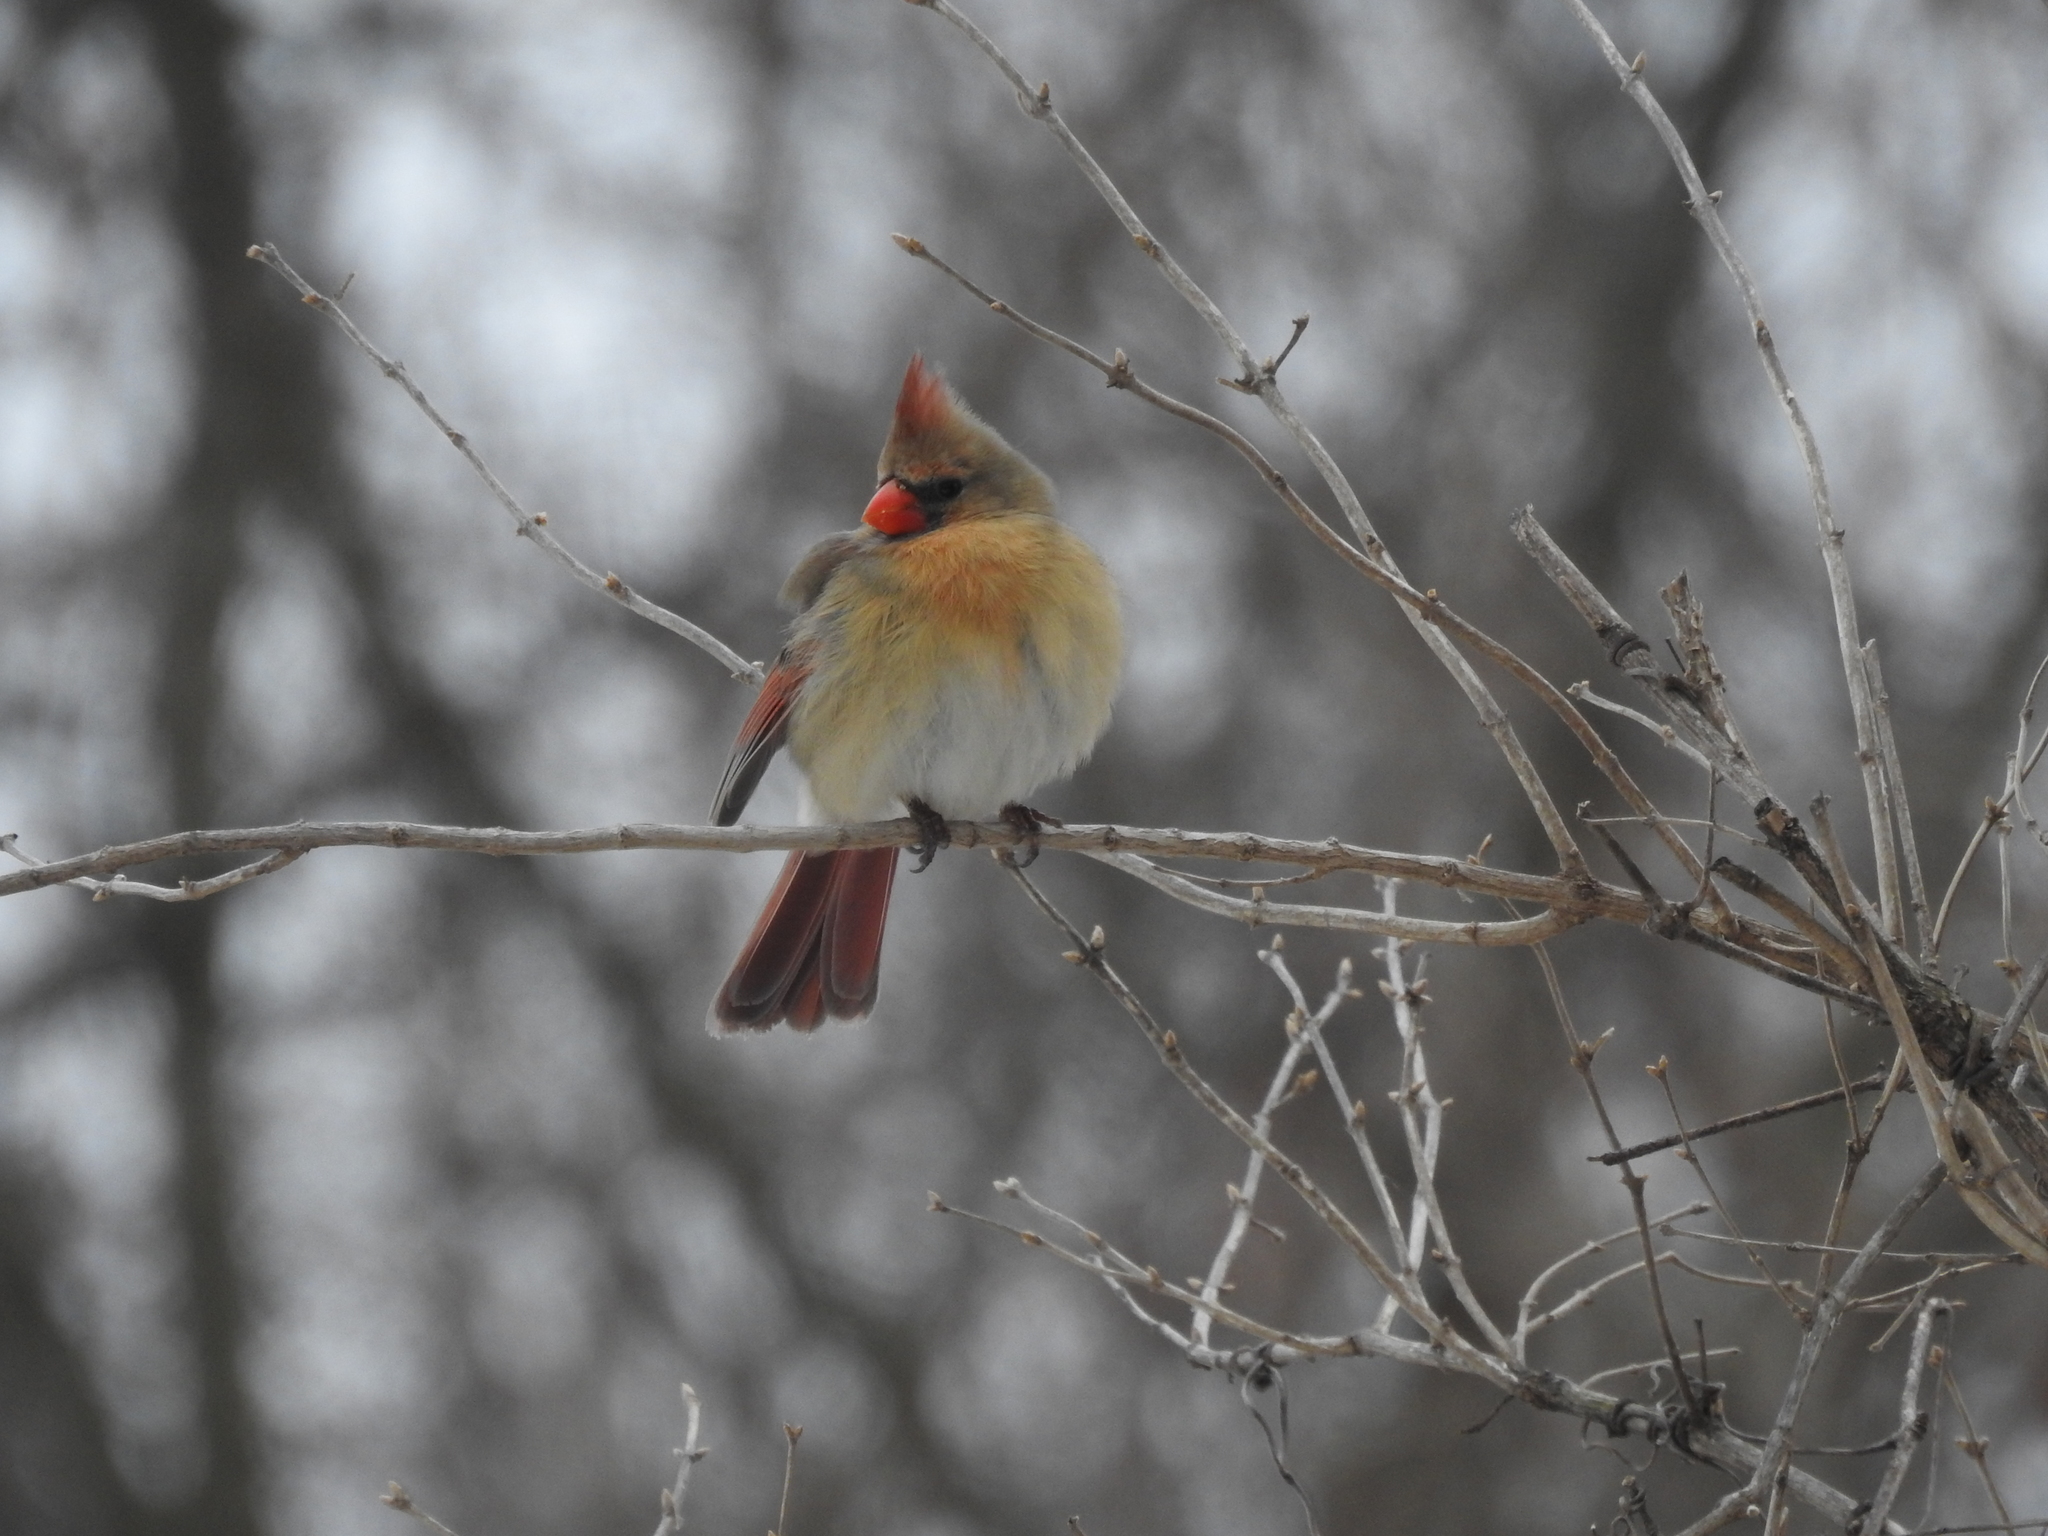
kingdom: Animalia
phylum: Chordata
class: Aves
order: Passeriformes
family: Cardinalidae
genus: Cardinalis
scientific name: Cardinalis cardinalis
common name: Northern cardinal
